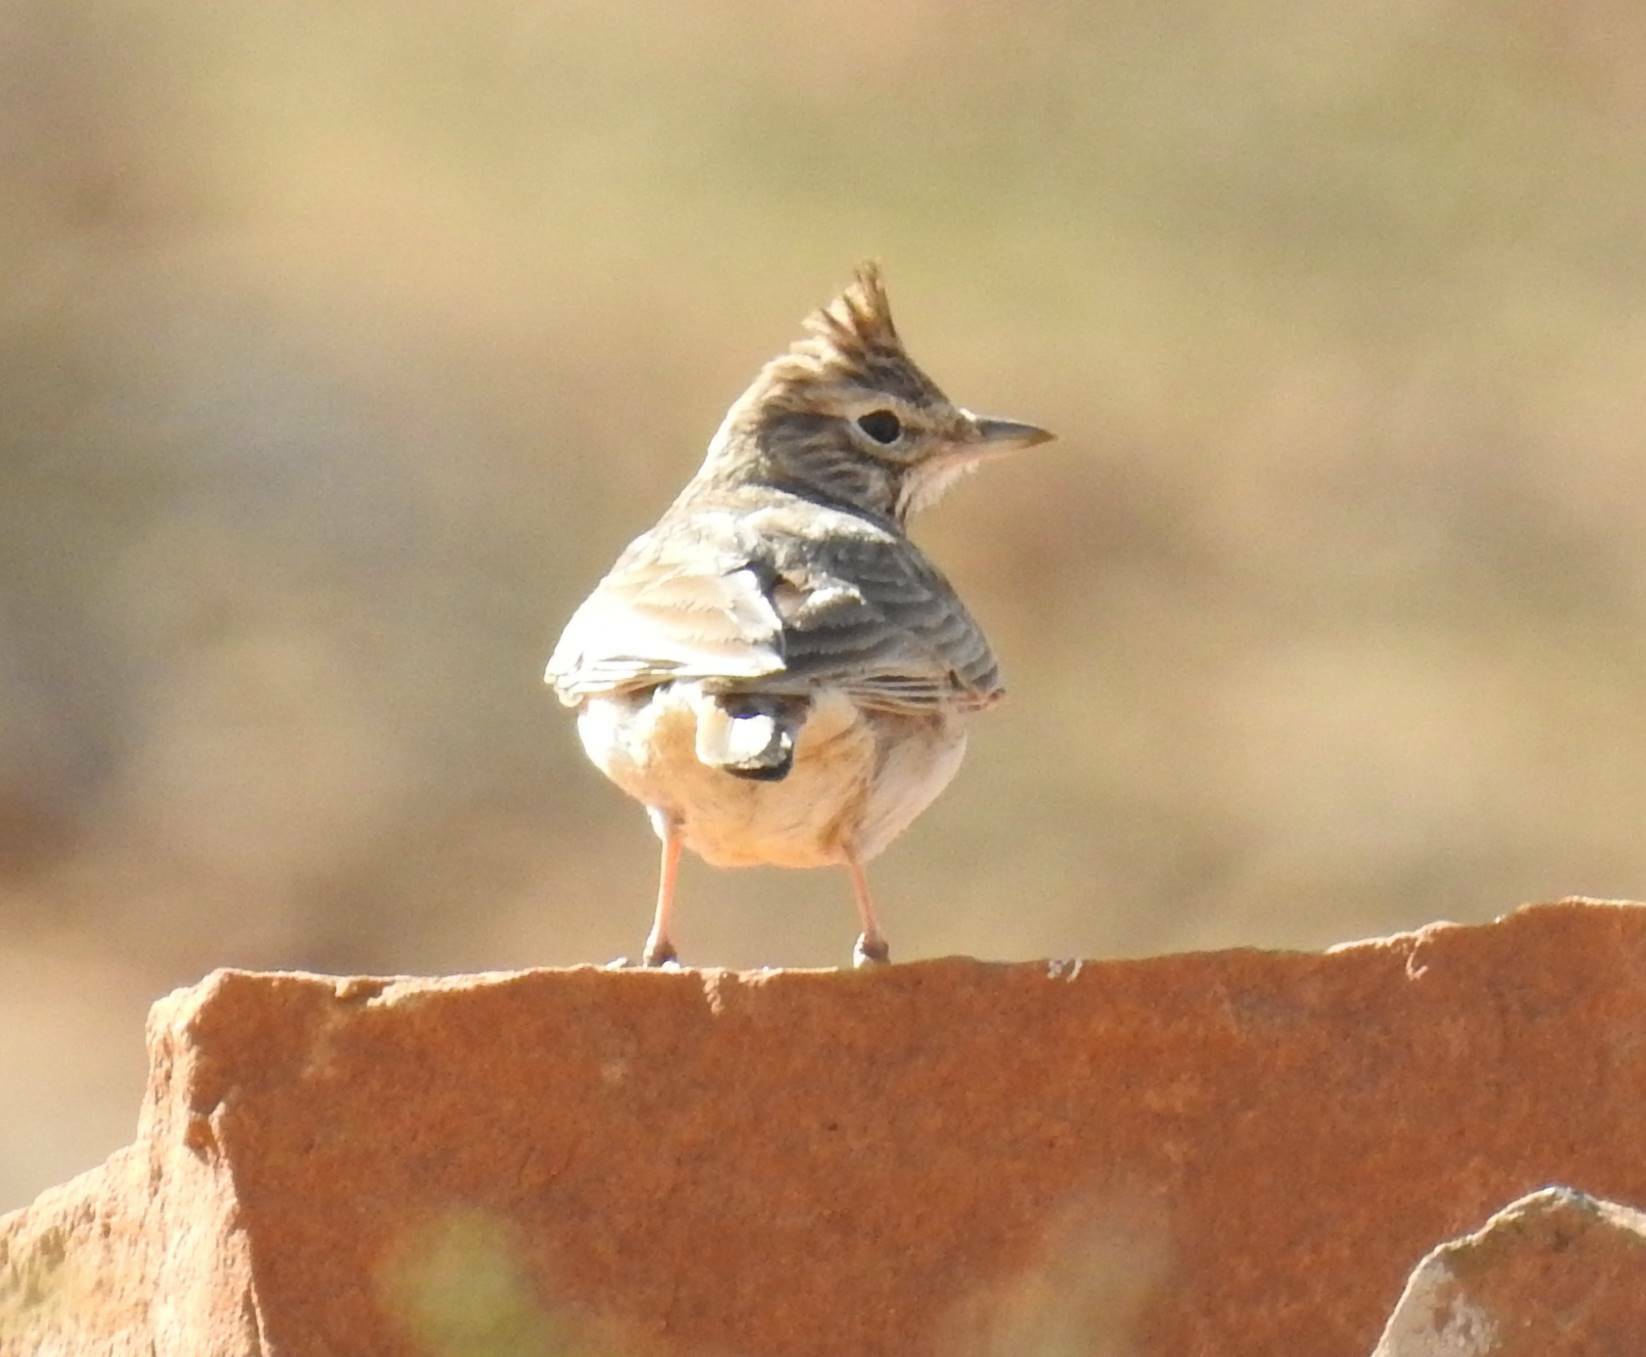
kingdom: Animalia
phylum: Chordata
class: Aves
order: Passeriformes
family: Alaudidae
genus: Galerida
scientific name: Galerida theklae
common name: Thekla lark
